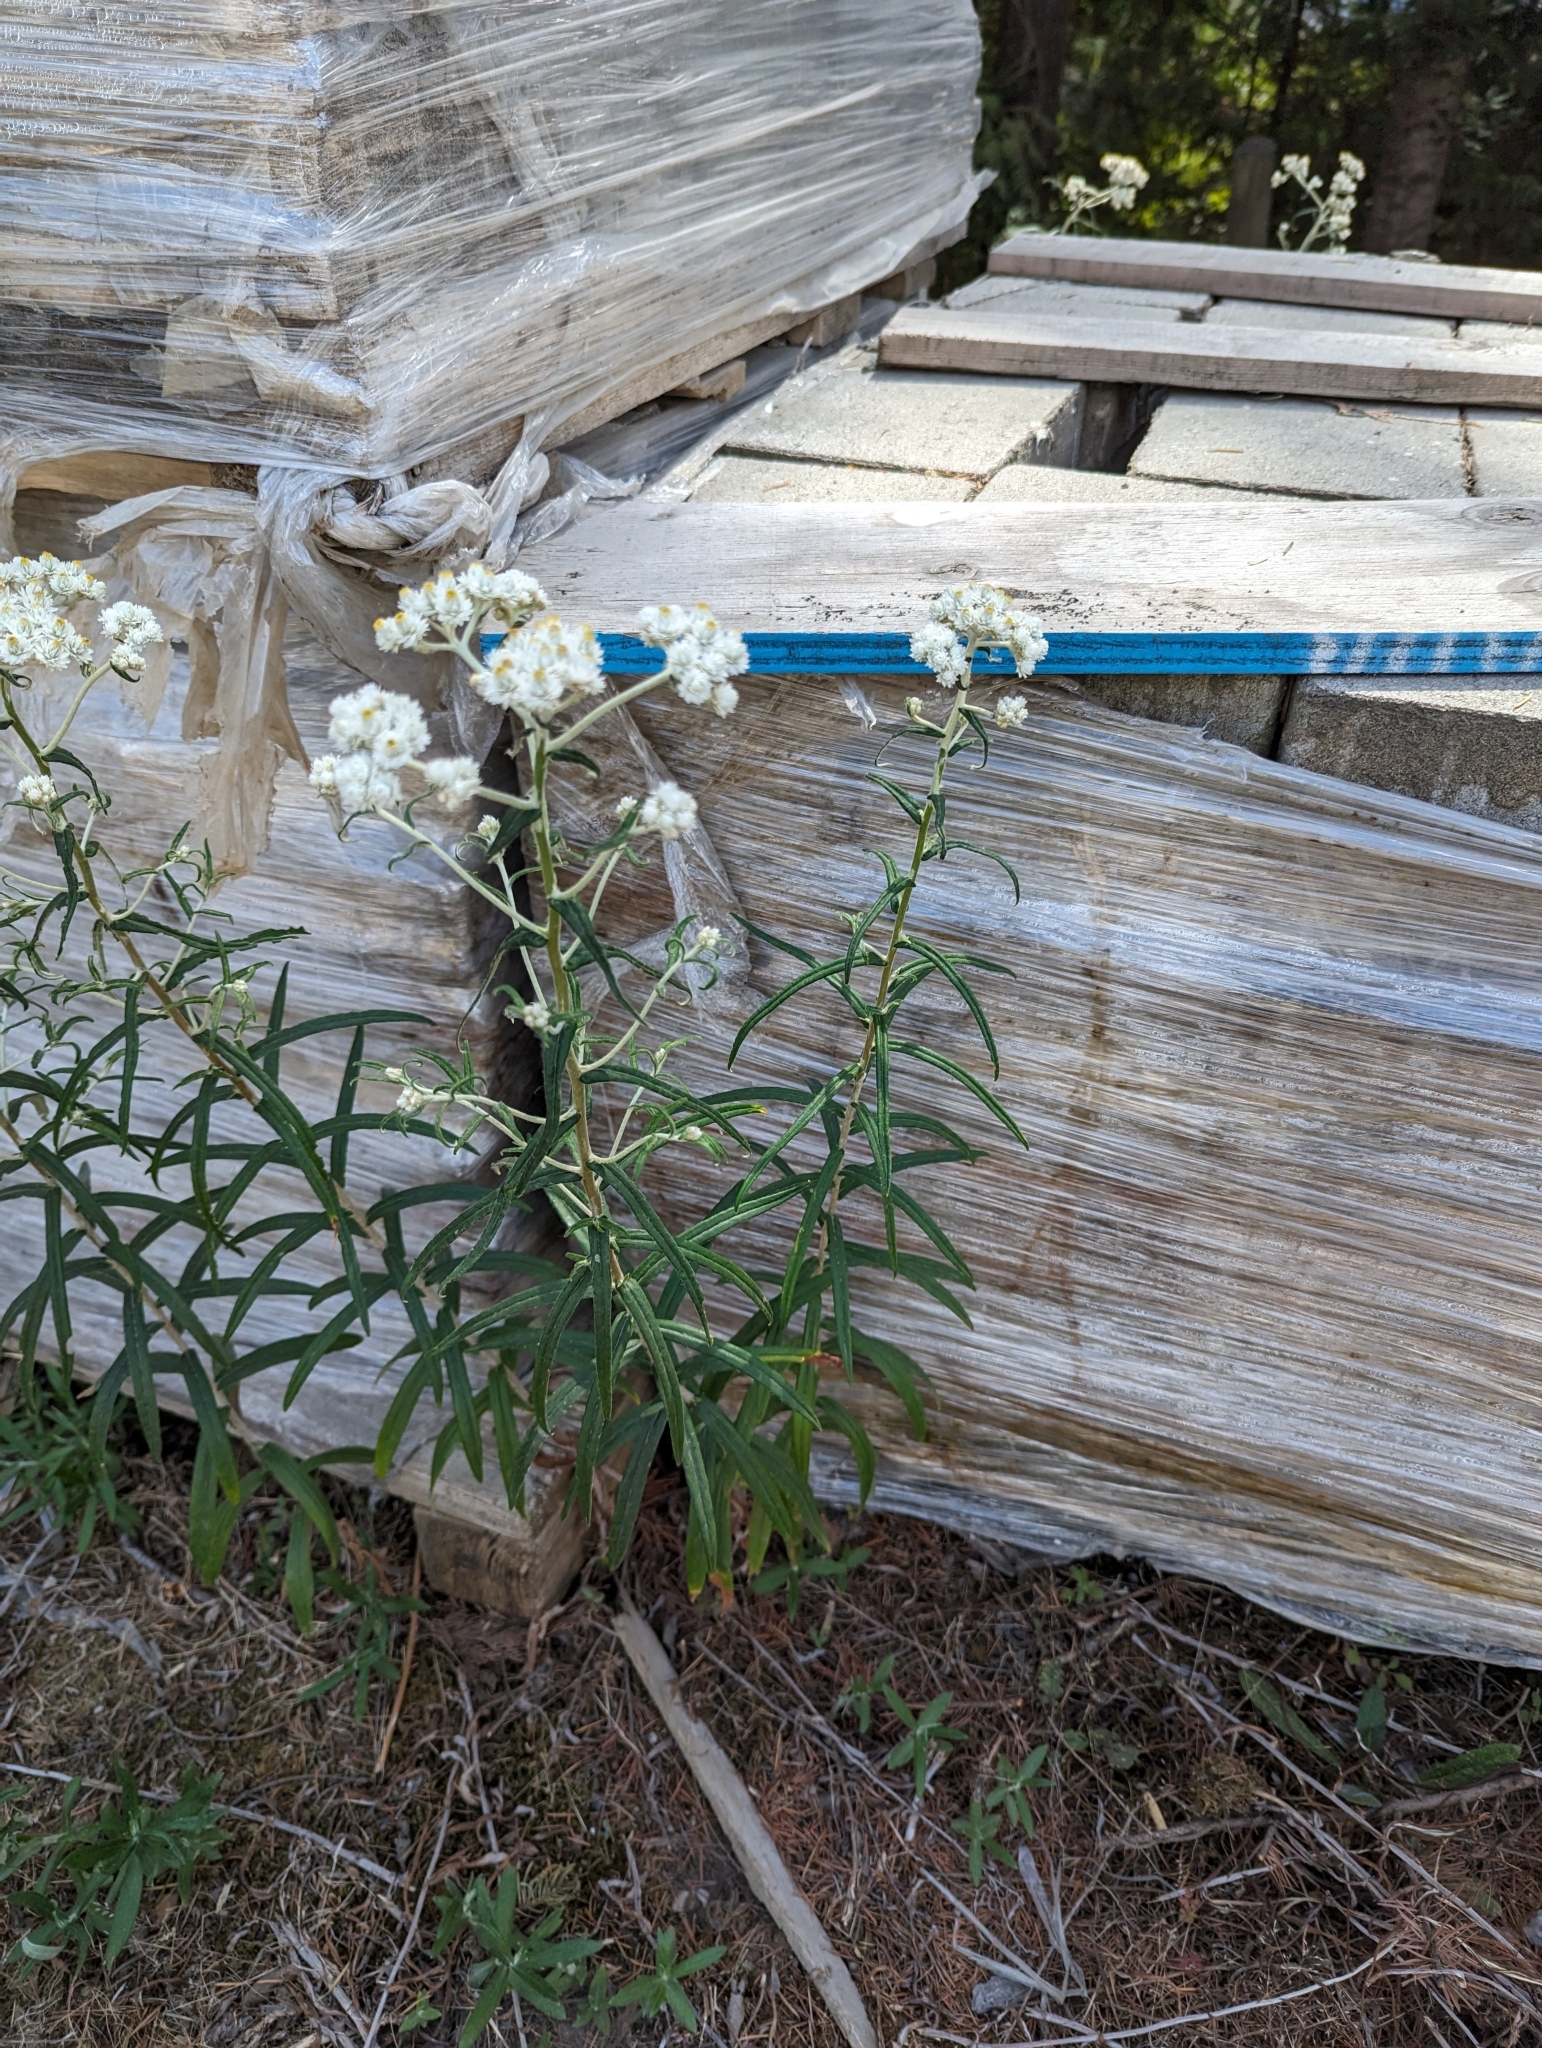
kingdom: Plantae
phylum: Tracheophyta
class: Magnoliopsida
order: Asterales
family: Asteraceae
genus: Anaphalis
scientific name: Anaphalis margaritacea
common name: Pearly everlasting
